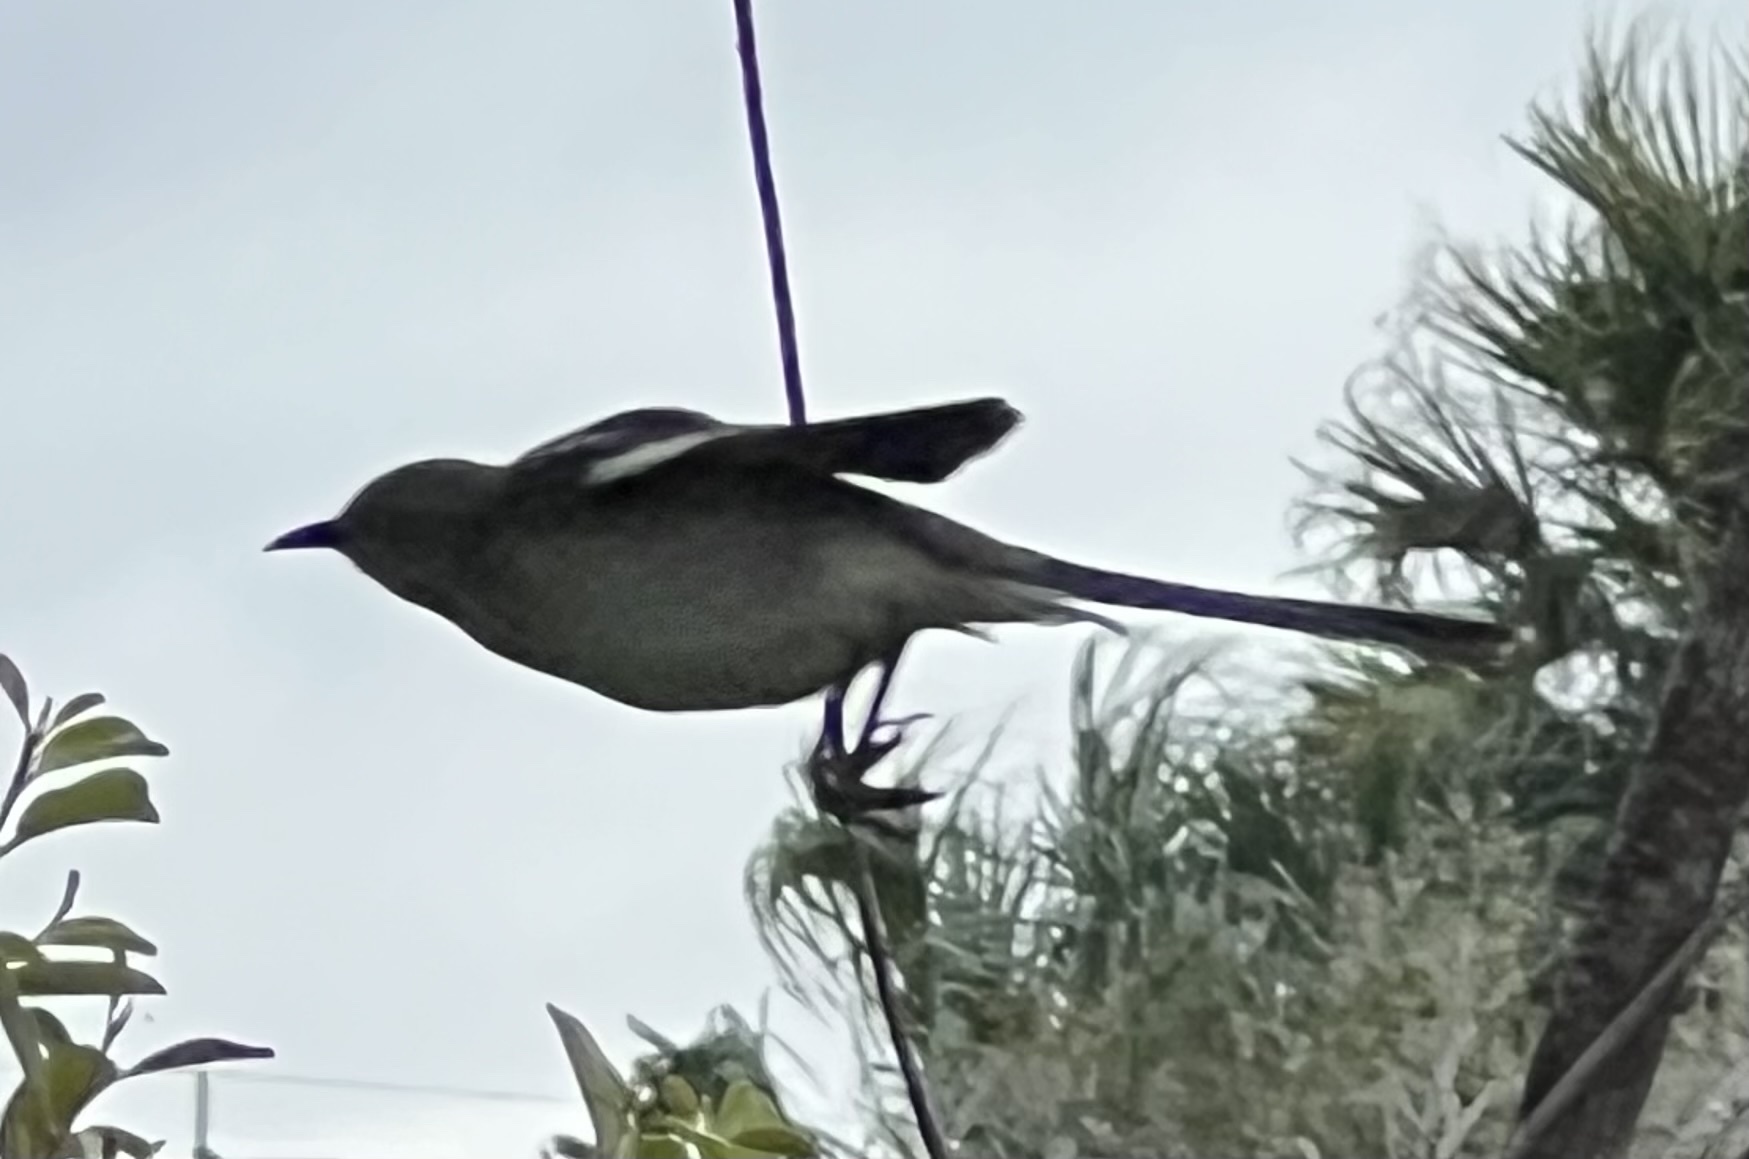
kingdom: Animalia
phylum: Chordata
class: Aves
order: Passeriformes
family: Mimidae
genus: Mimus
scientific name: Mimus polyglottos
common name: Northern mockingbird
